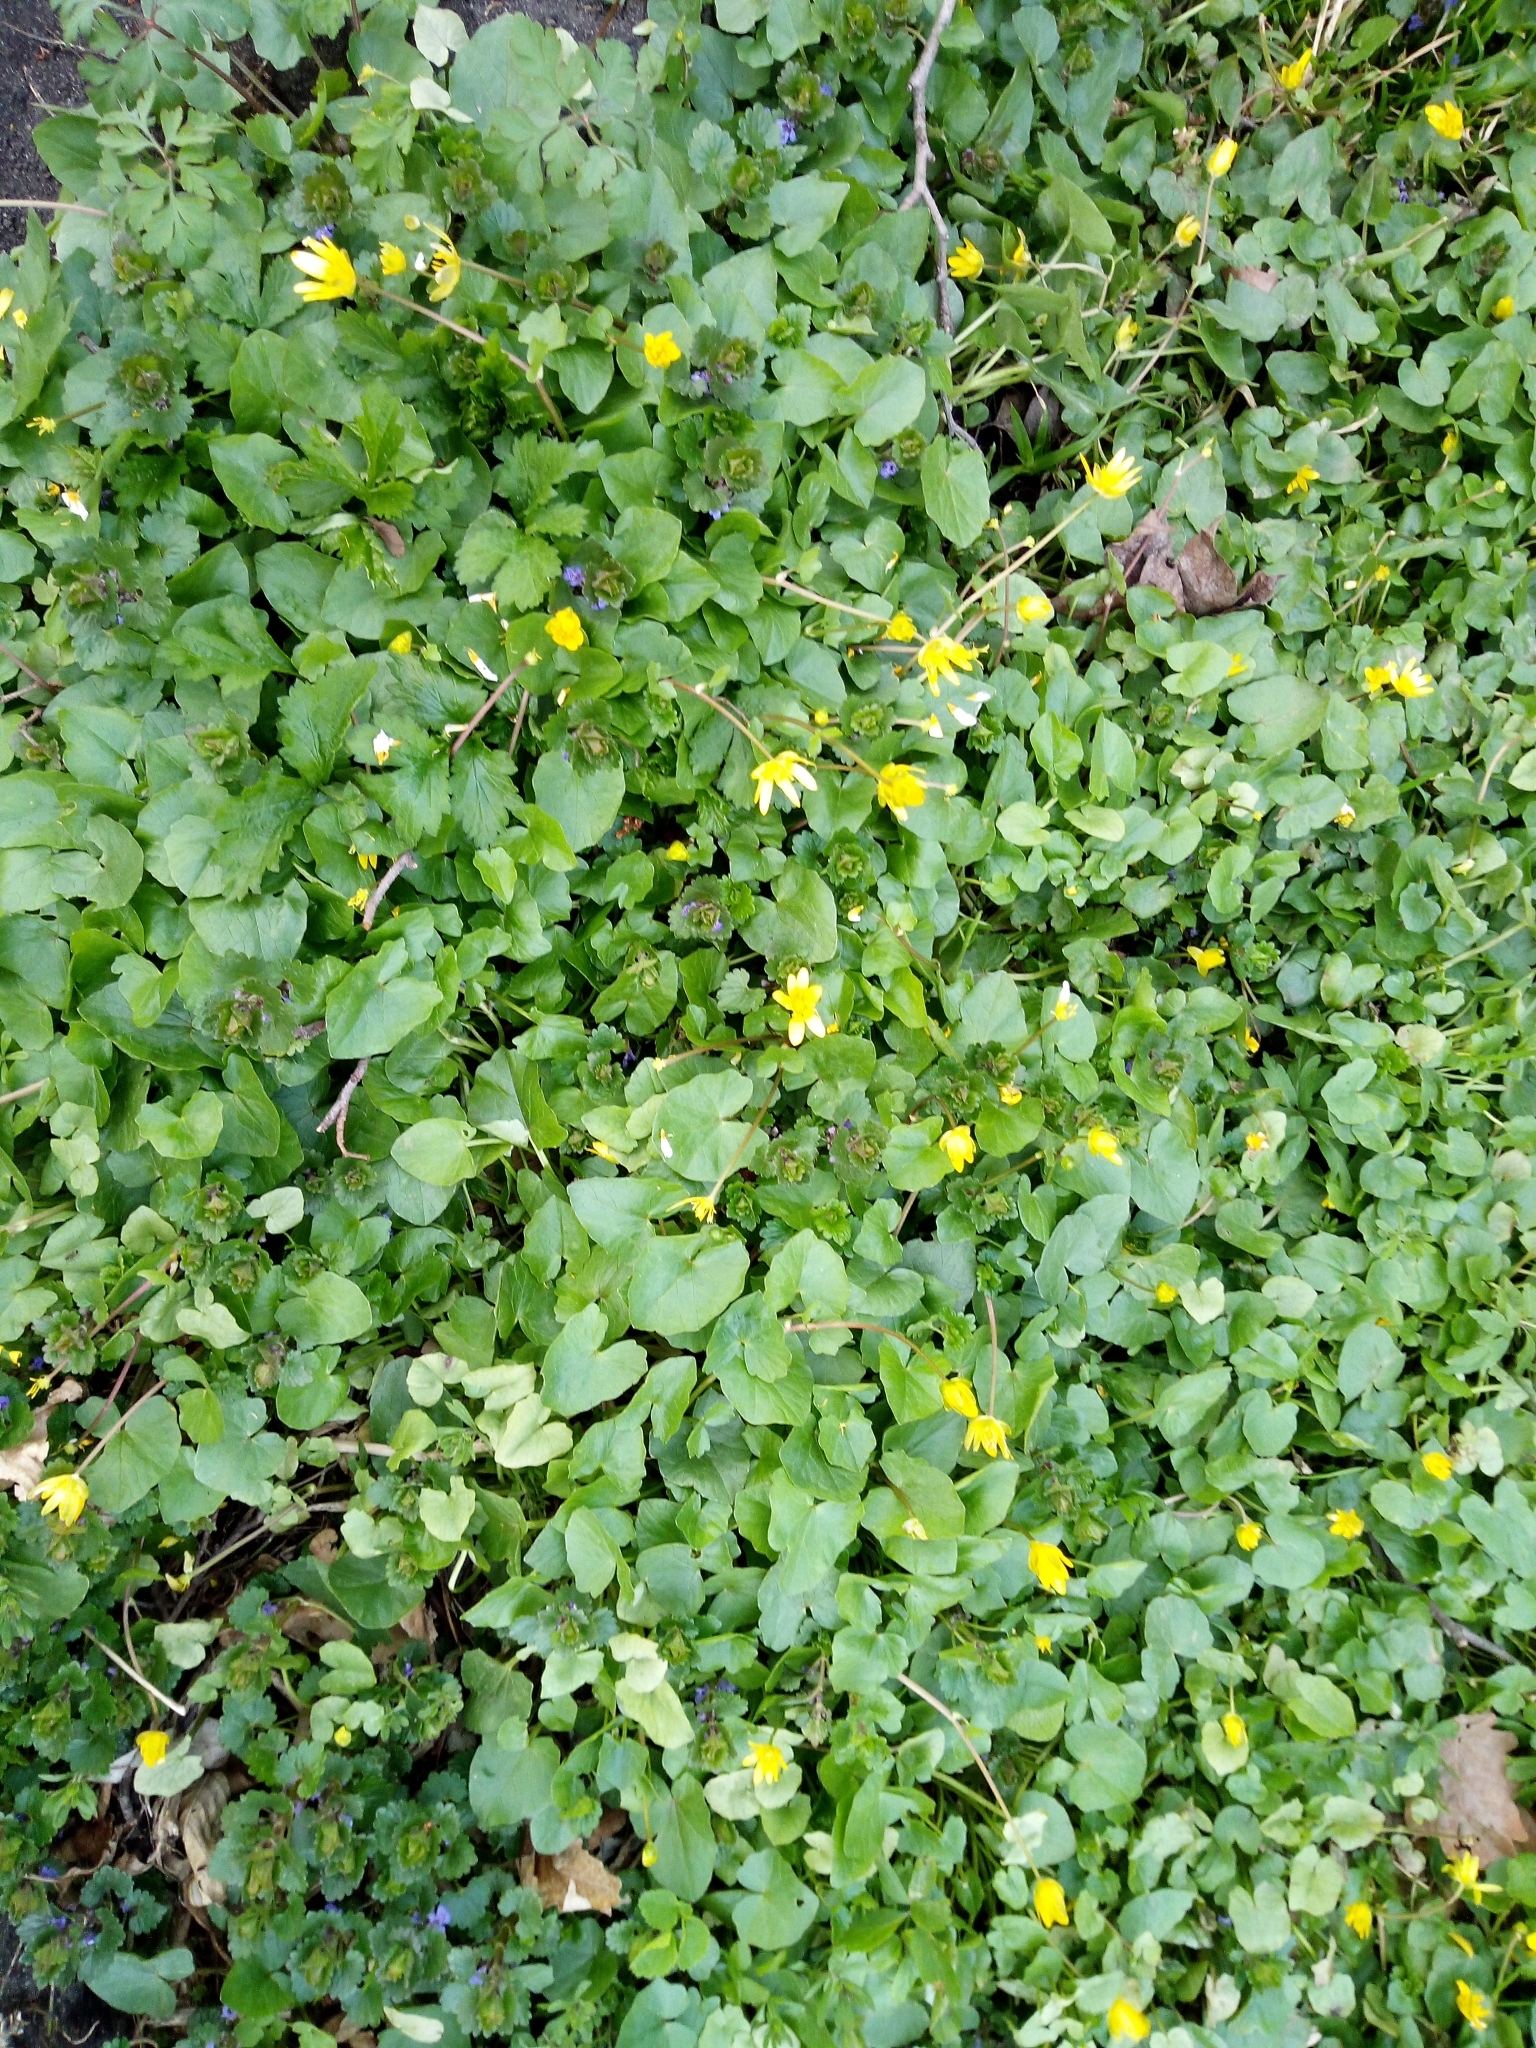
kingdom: Plantae
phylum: Tracheophyta
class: Magnoliopsida
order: Ranunculales
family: Ranunculaceae
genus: Ficaria
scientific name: Ficaria verna
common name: Lesser celandine
